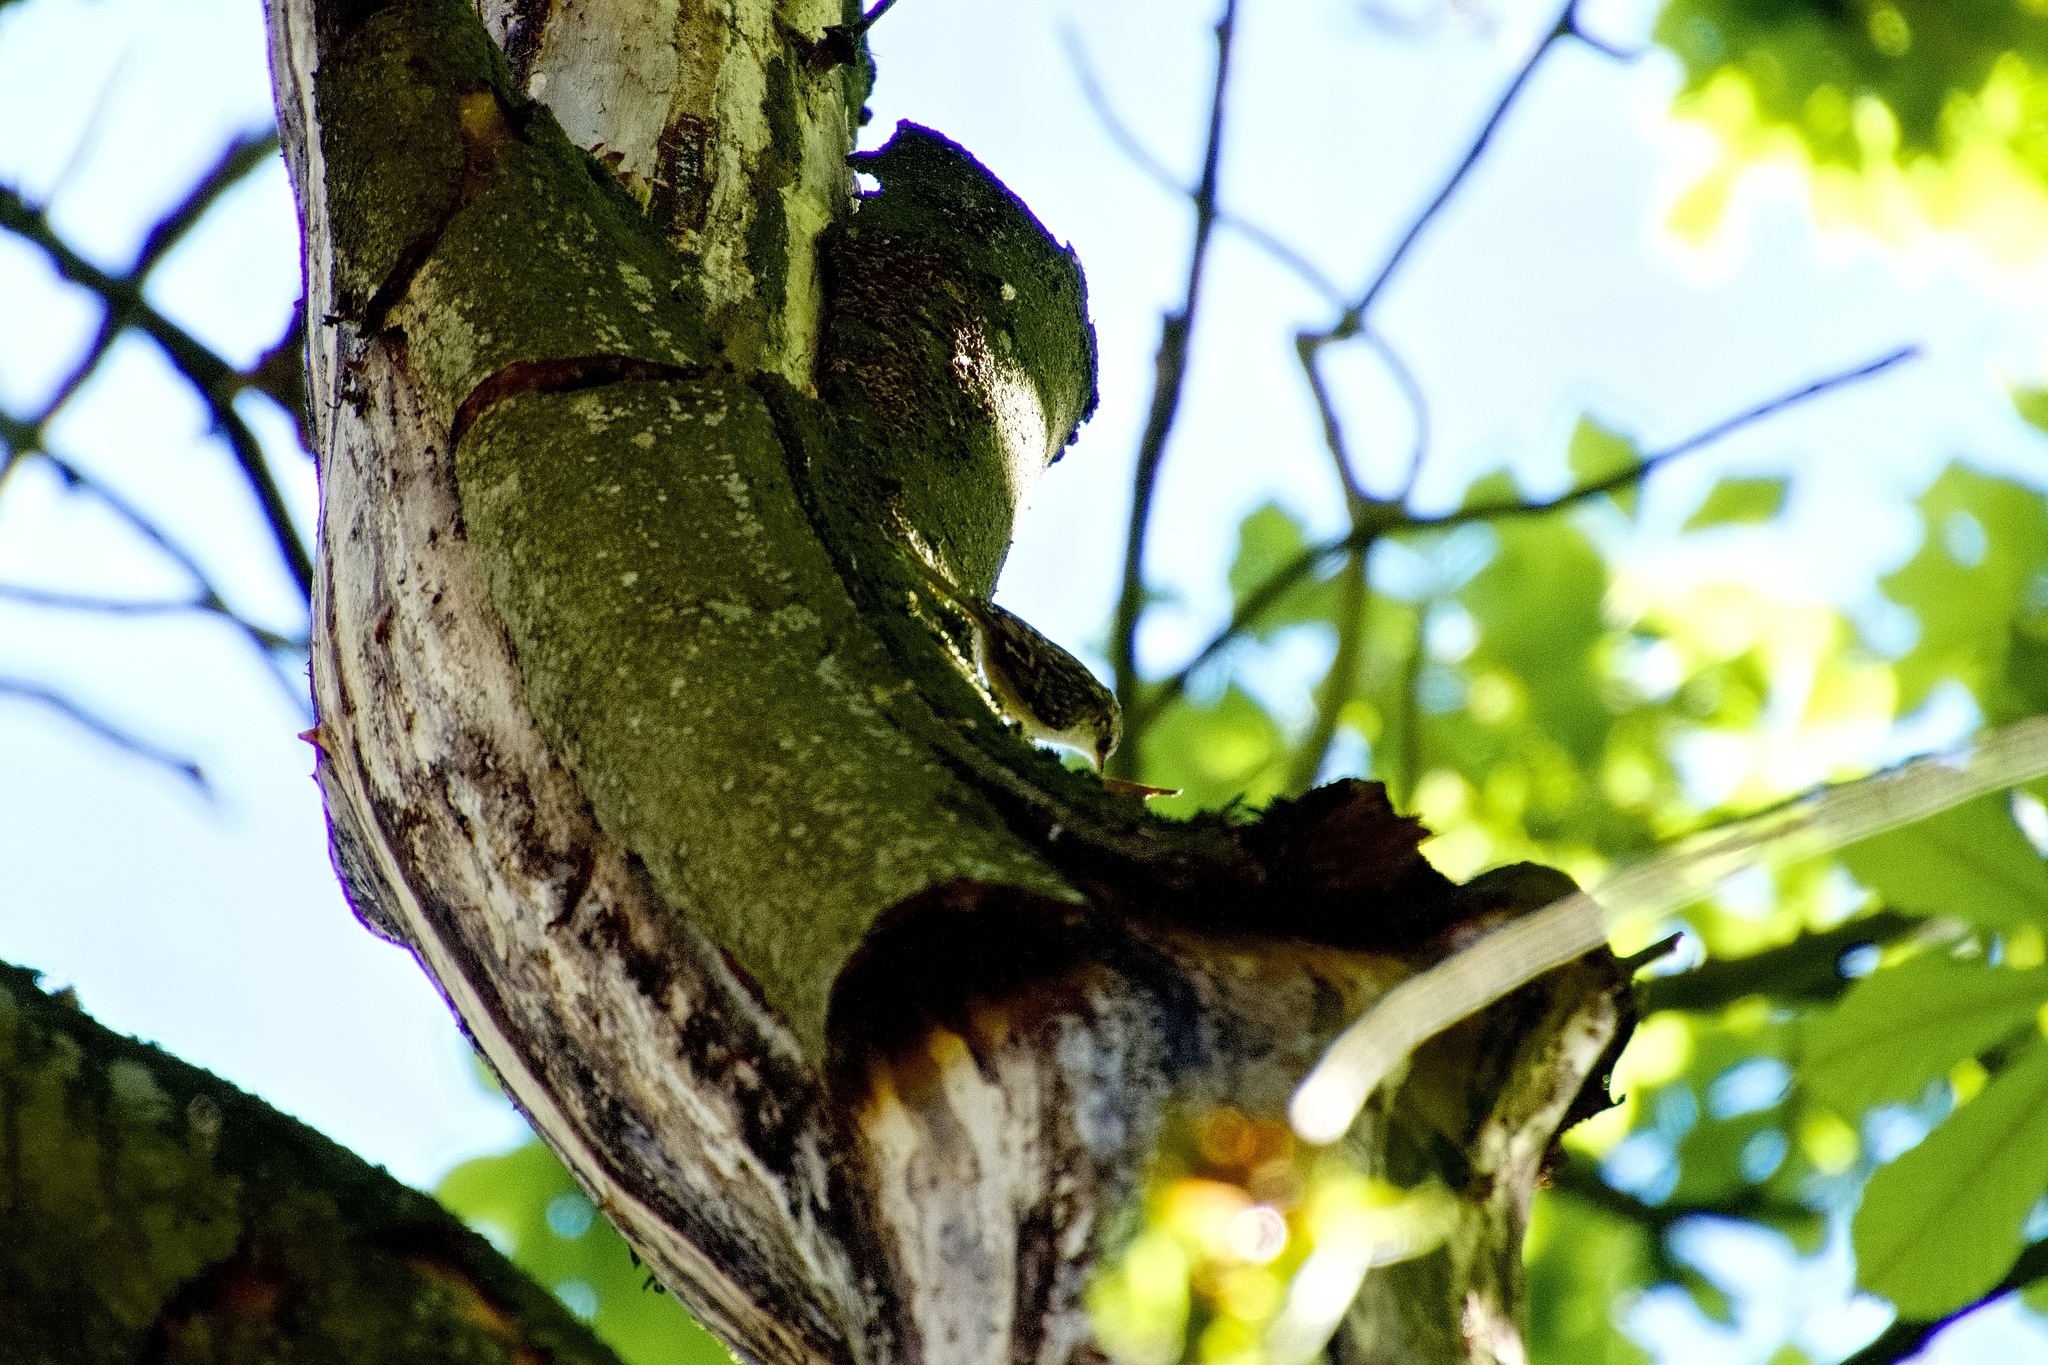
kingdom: Animalia
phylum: Chordata
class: Aves
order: Passeriformes
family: Certhiidae
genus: Certhia
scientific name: Certhia familiaris
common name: Eurasian treecreeper
